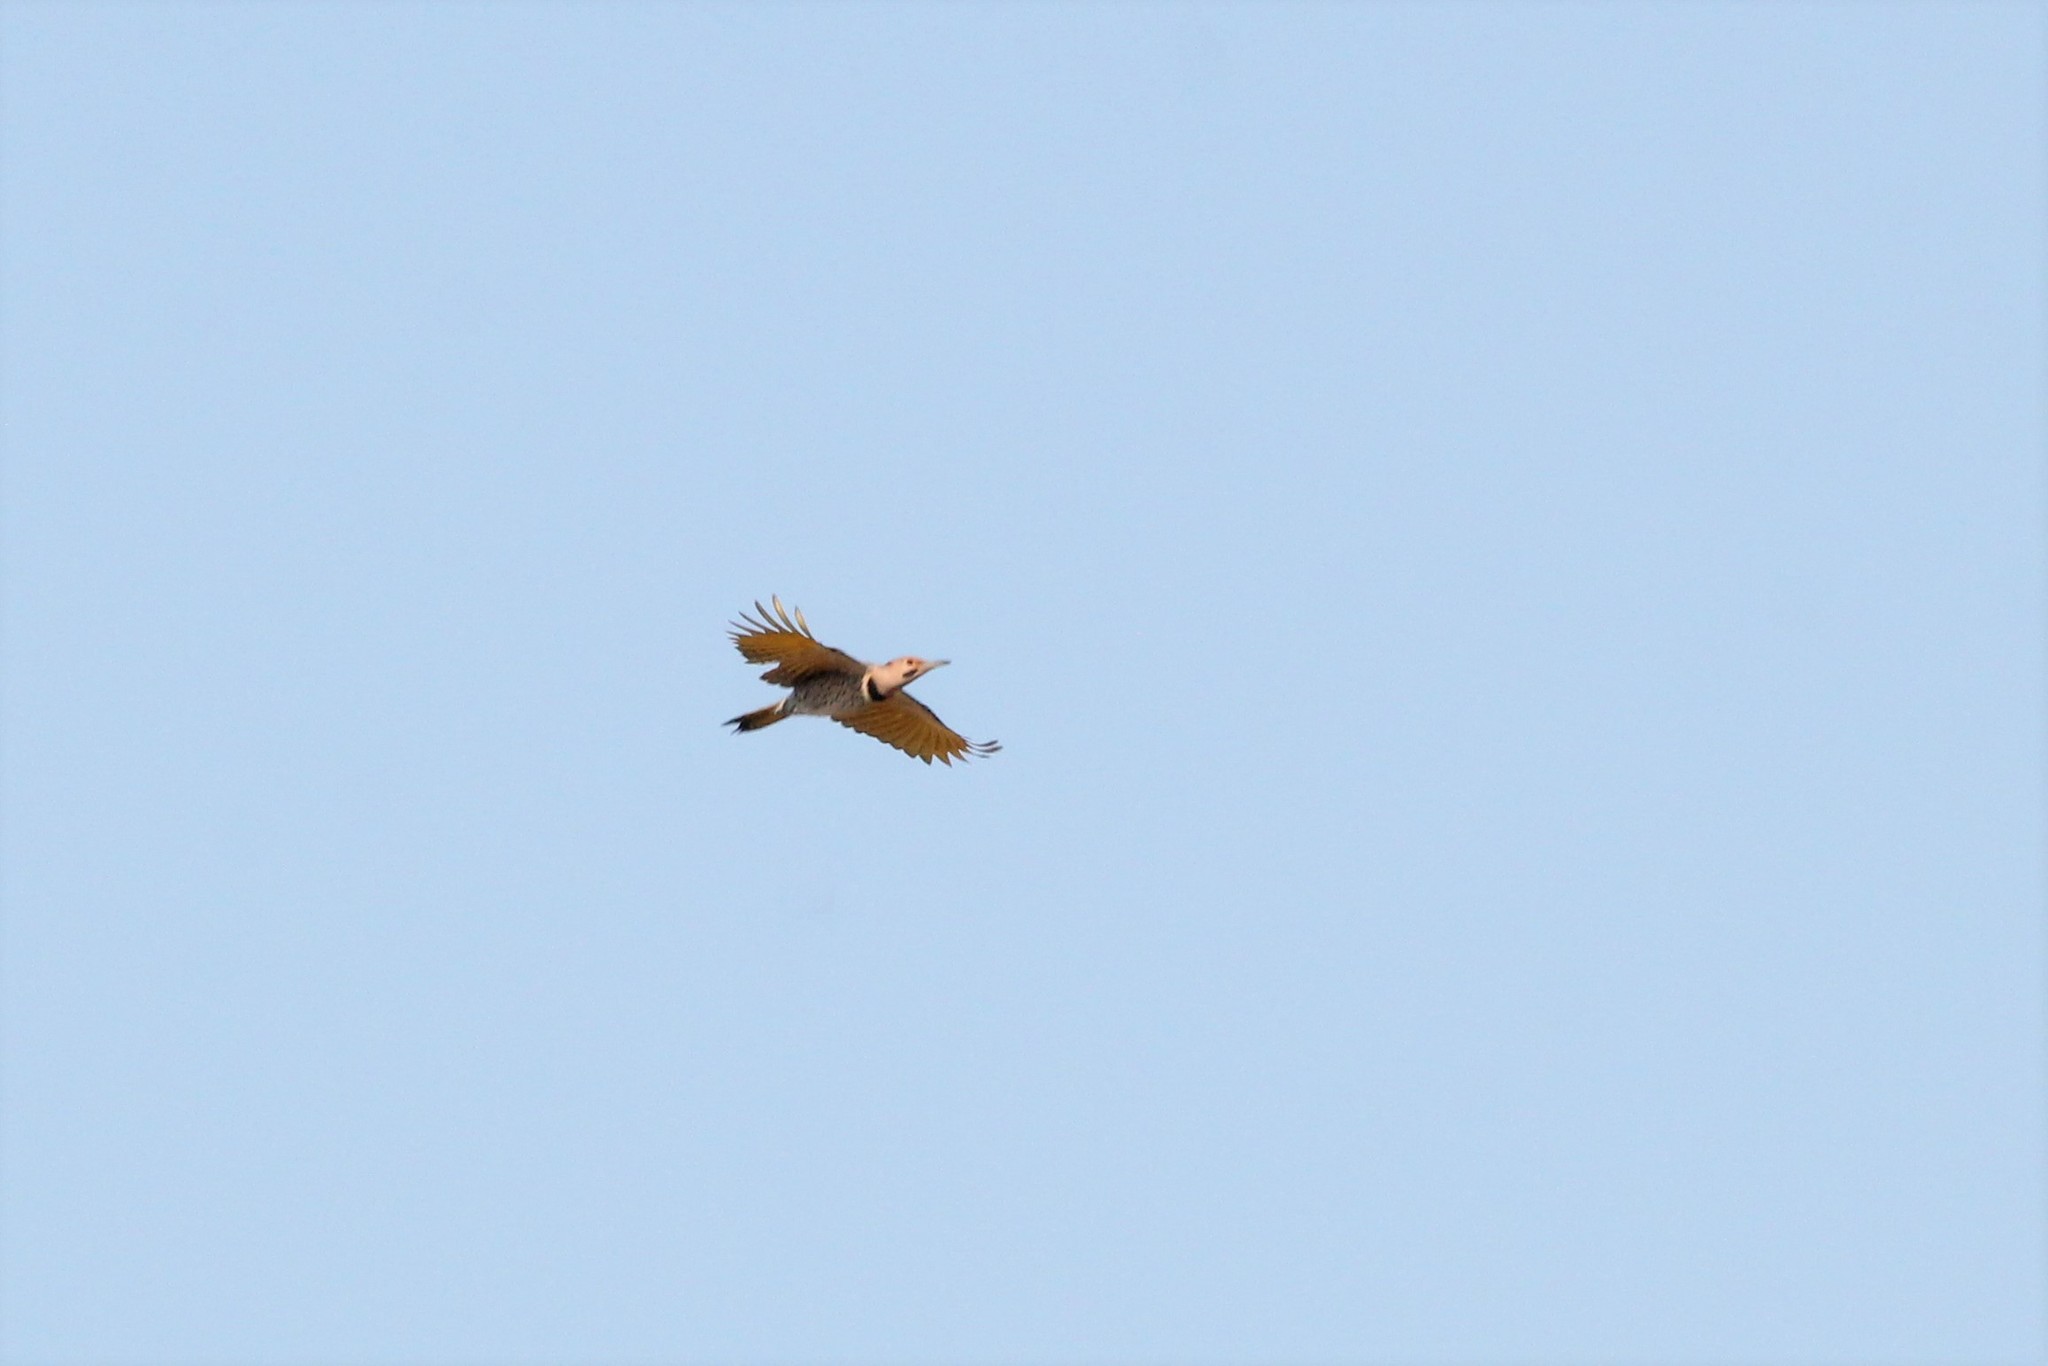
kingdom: Animalia
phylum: Chordata
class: Aves
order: Piciformes
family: Picidae
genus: Colaptes
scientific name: Colaptes auratus
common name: Northern flicker
